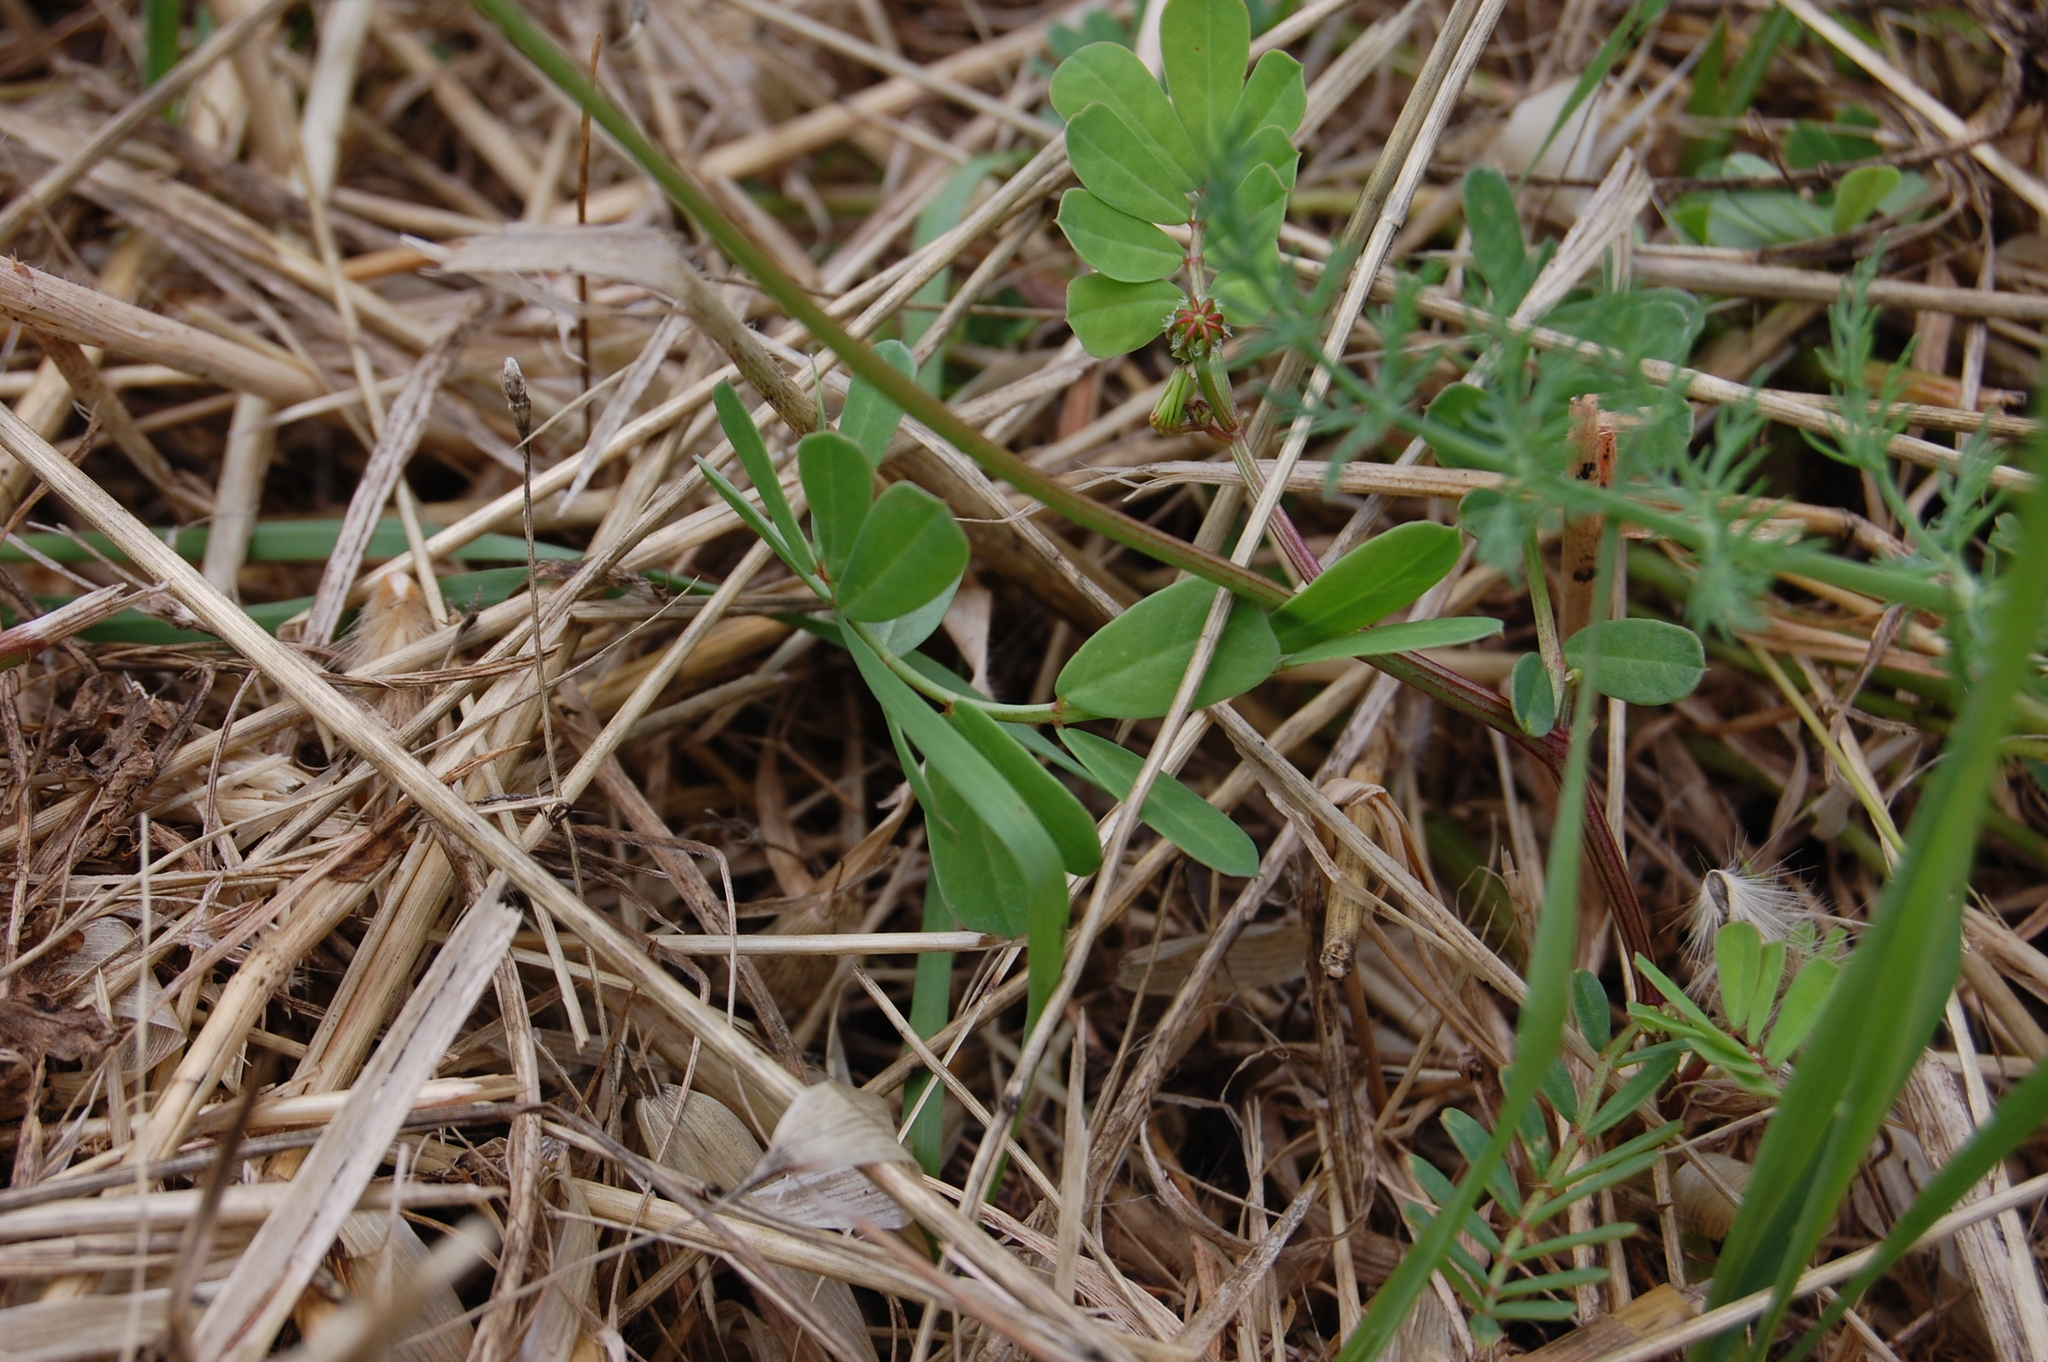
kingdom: Plantae
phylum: Tracheophyta
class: Magnoliopsida
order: Fabales
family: Fabaceae
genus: Coronilla
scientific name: Coronilla securidaca
